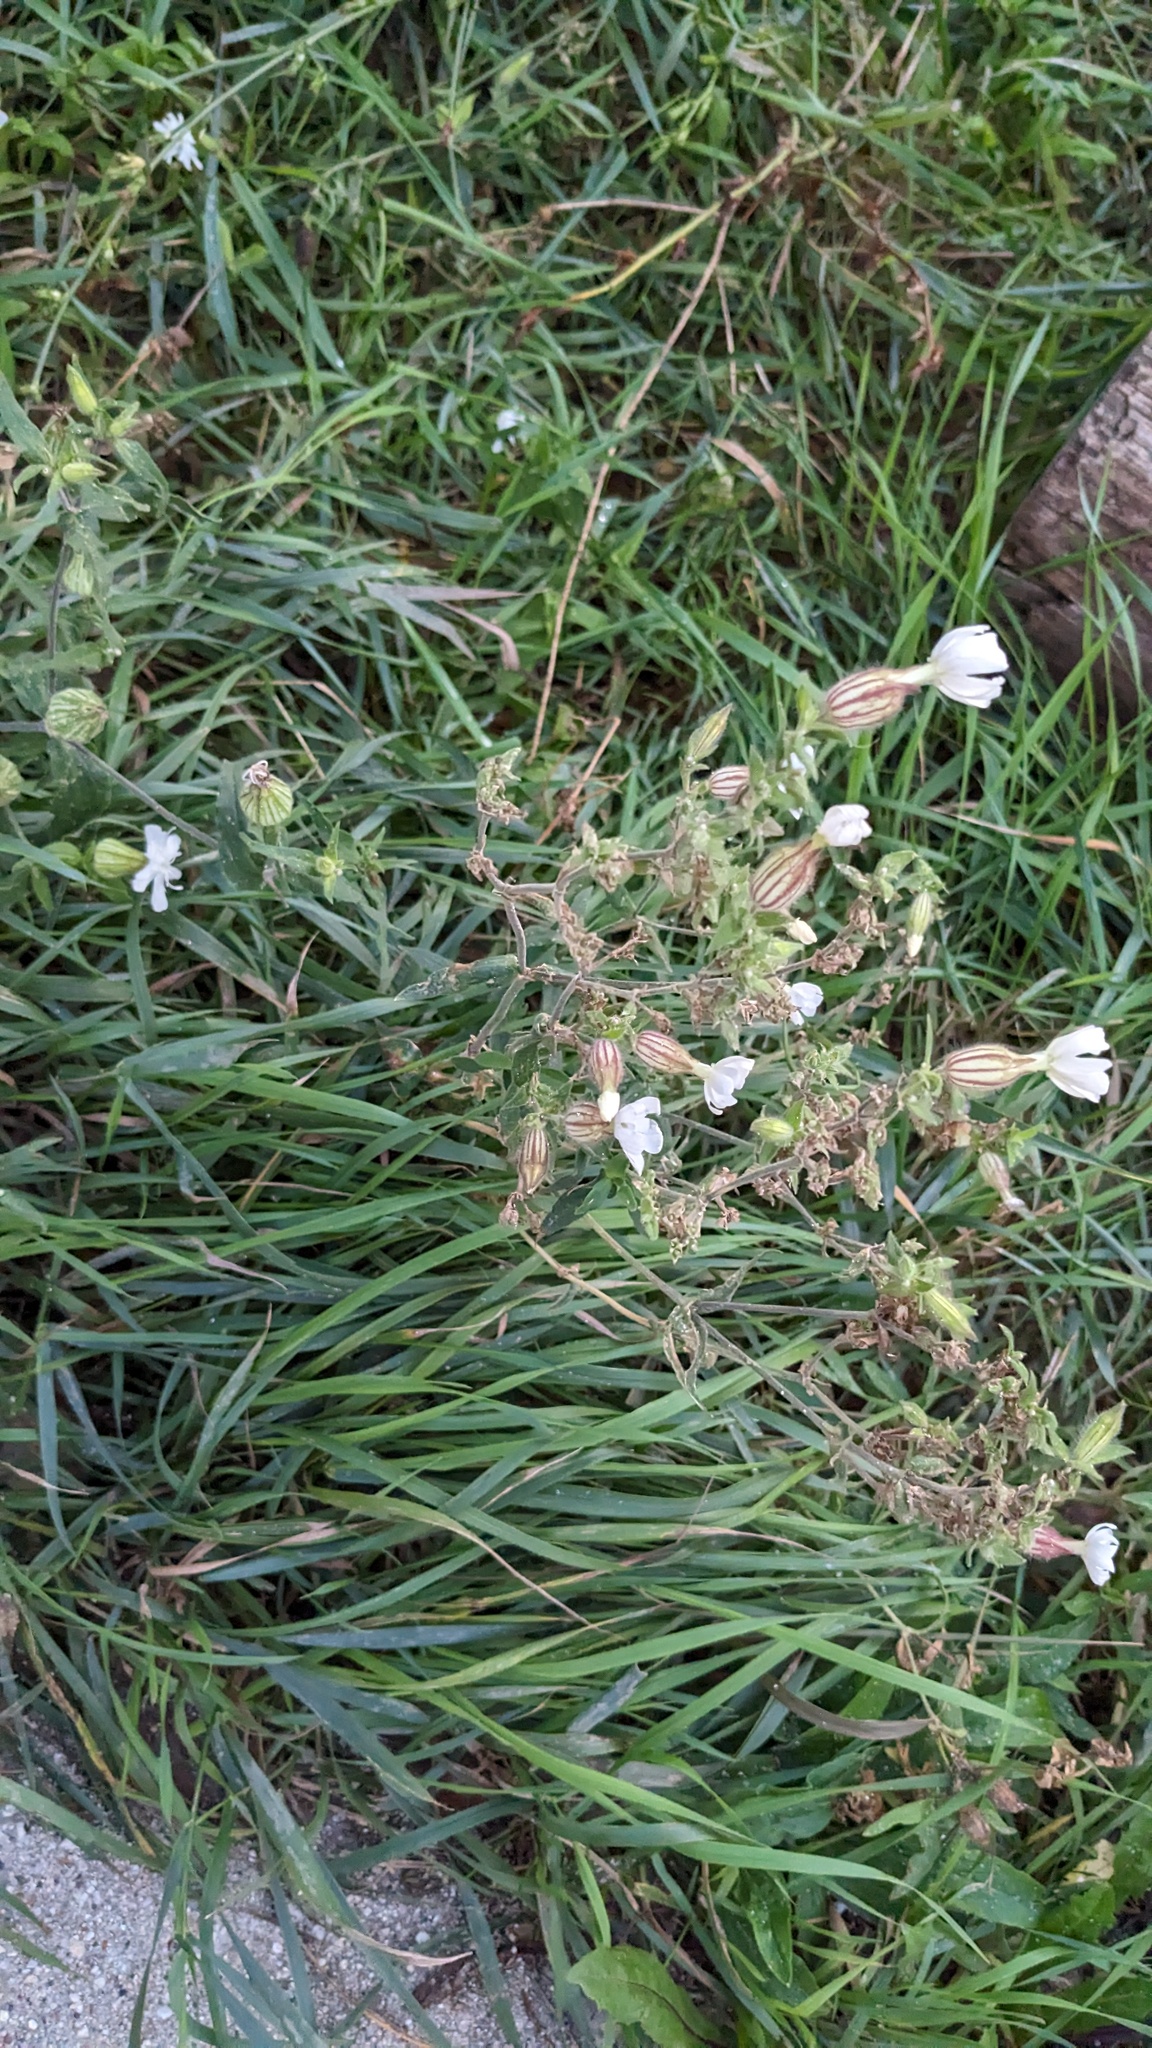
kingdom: Plantae
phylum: Tracheophyta
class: Magnoliopsida
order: Caryophyllales
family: Caryophyllaceae
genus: Silene
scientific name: Silene latifolia
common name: White campion
